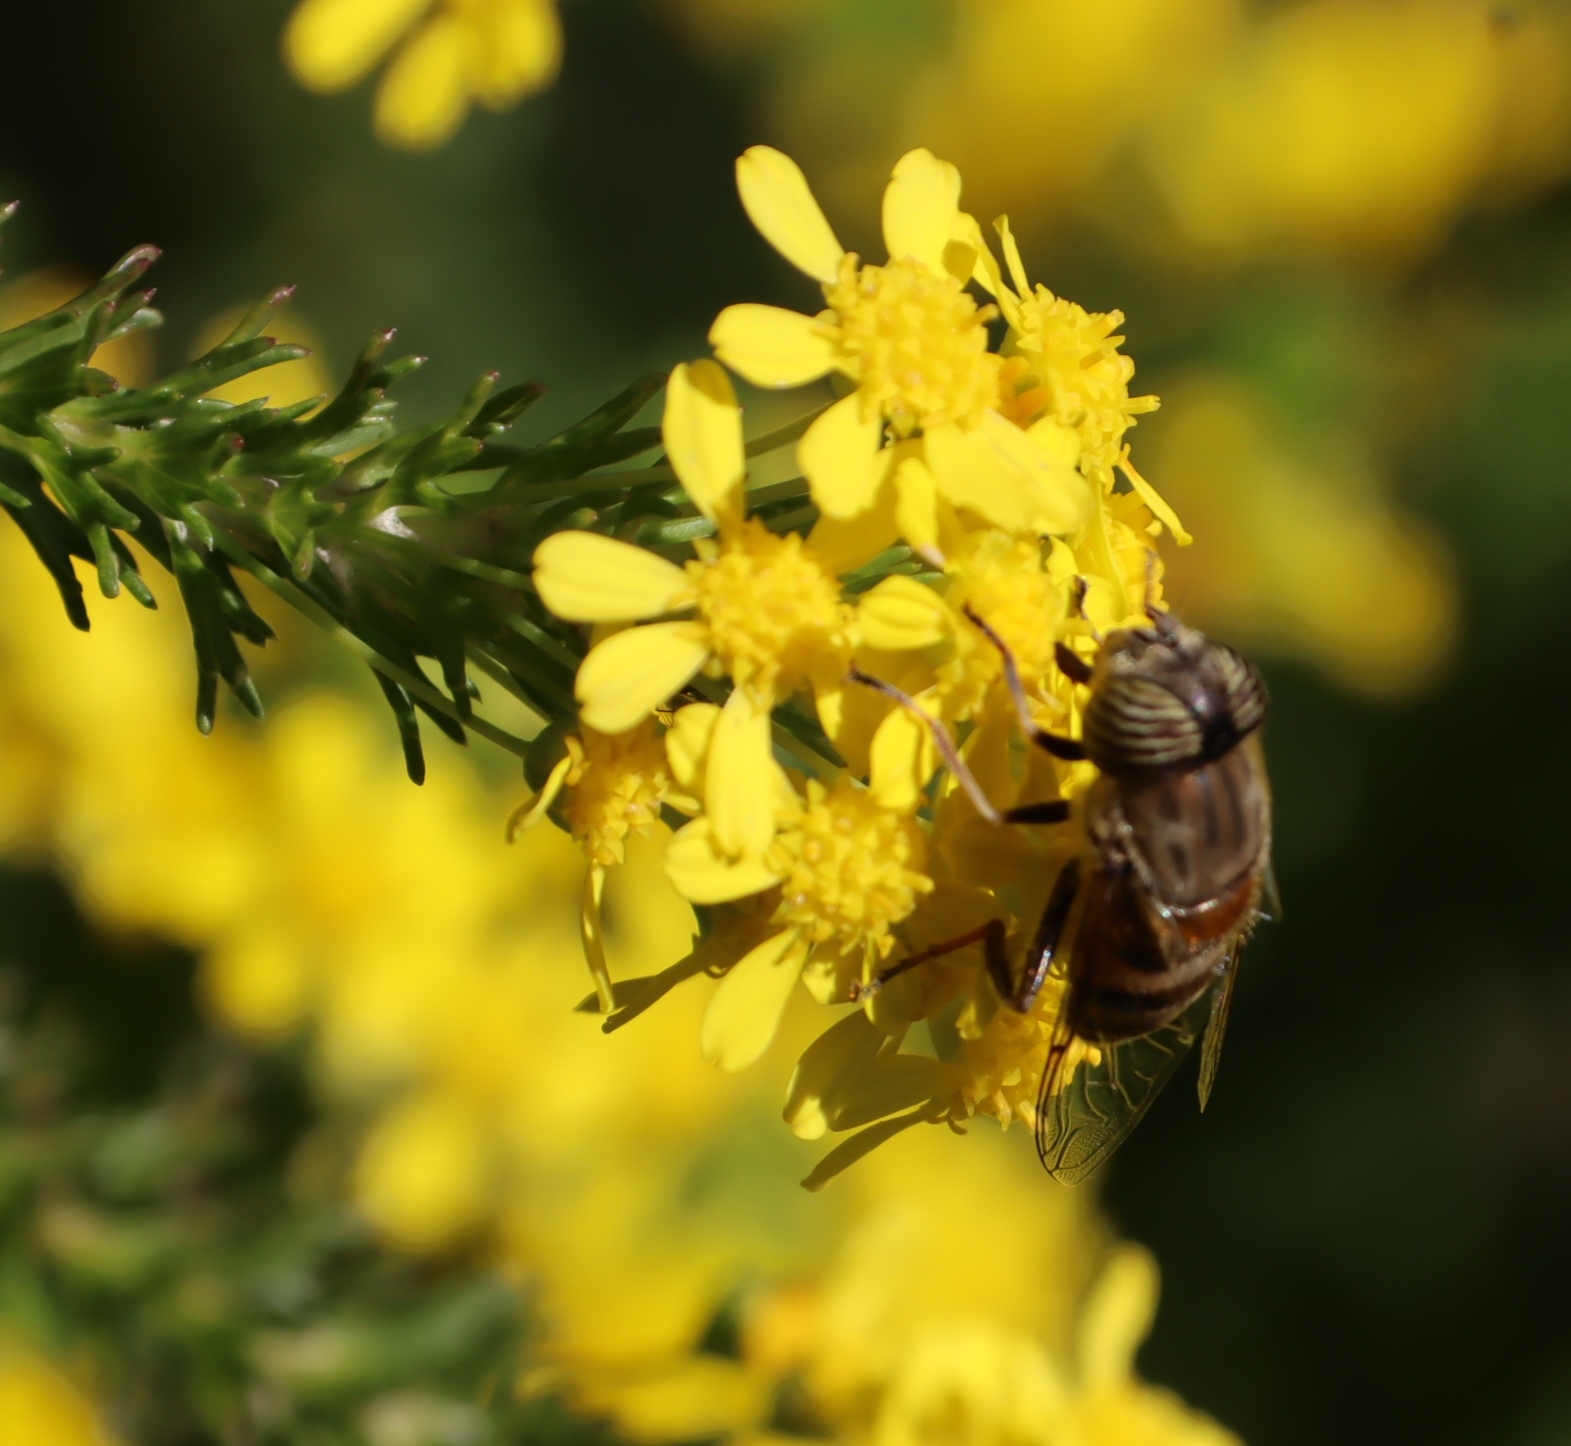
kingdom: Animalia
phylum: Arthropoda
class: Insecta
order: Diptera
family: Syrphidae
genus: Eristalinus
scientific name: Eristalinus taeniops
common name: Syrphid fly
